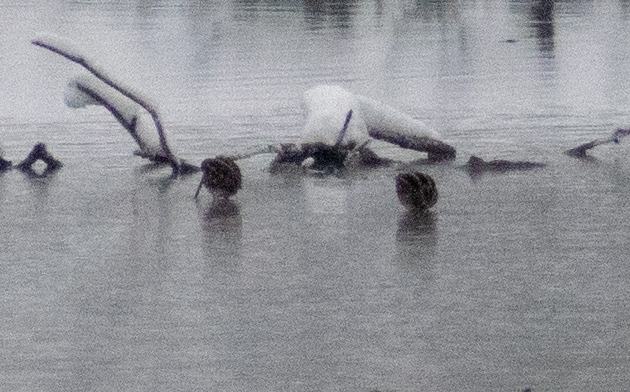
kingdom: Animalia
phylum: Chordata
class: Aves
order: Charadriiformes
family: Scolopacidae
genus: Gallinago
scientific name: Gallinago gallinago
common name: Common snipe
